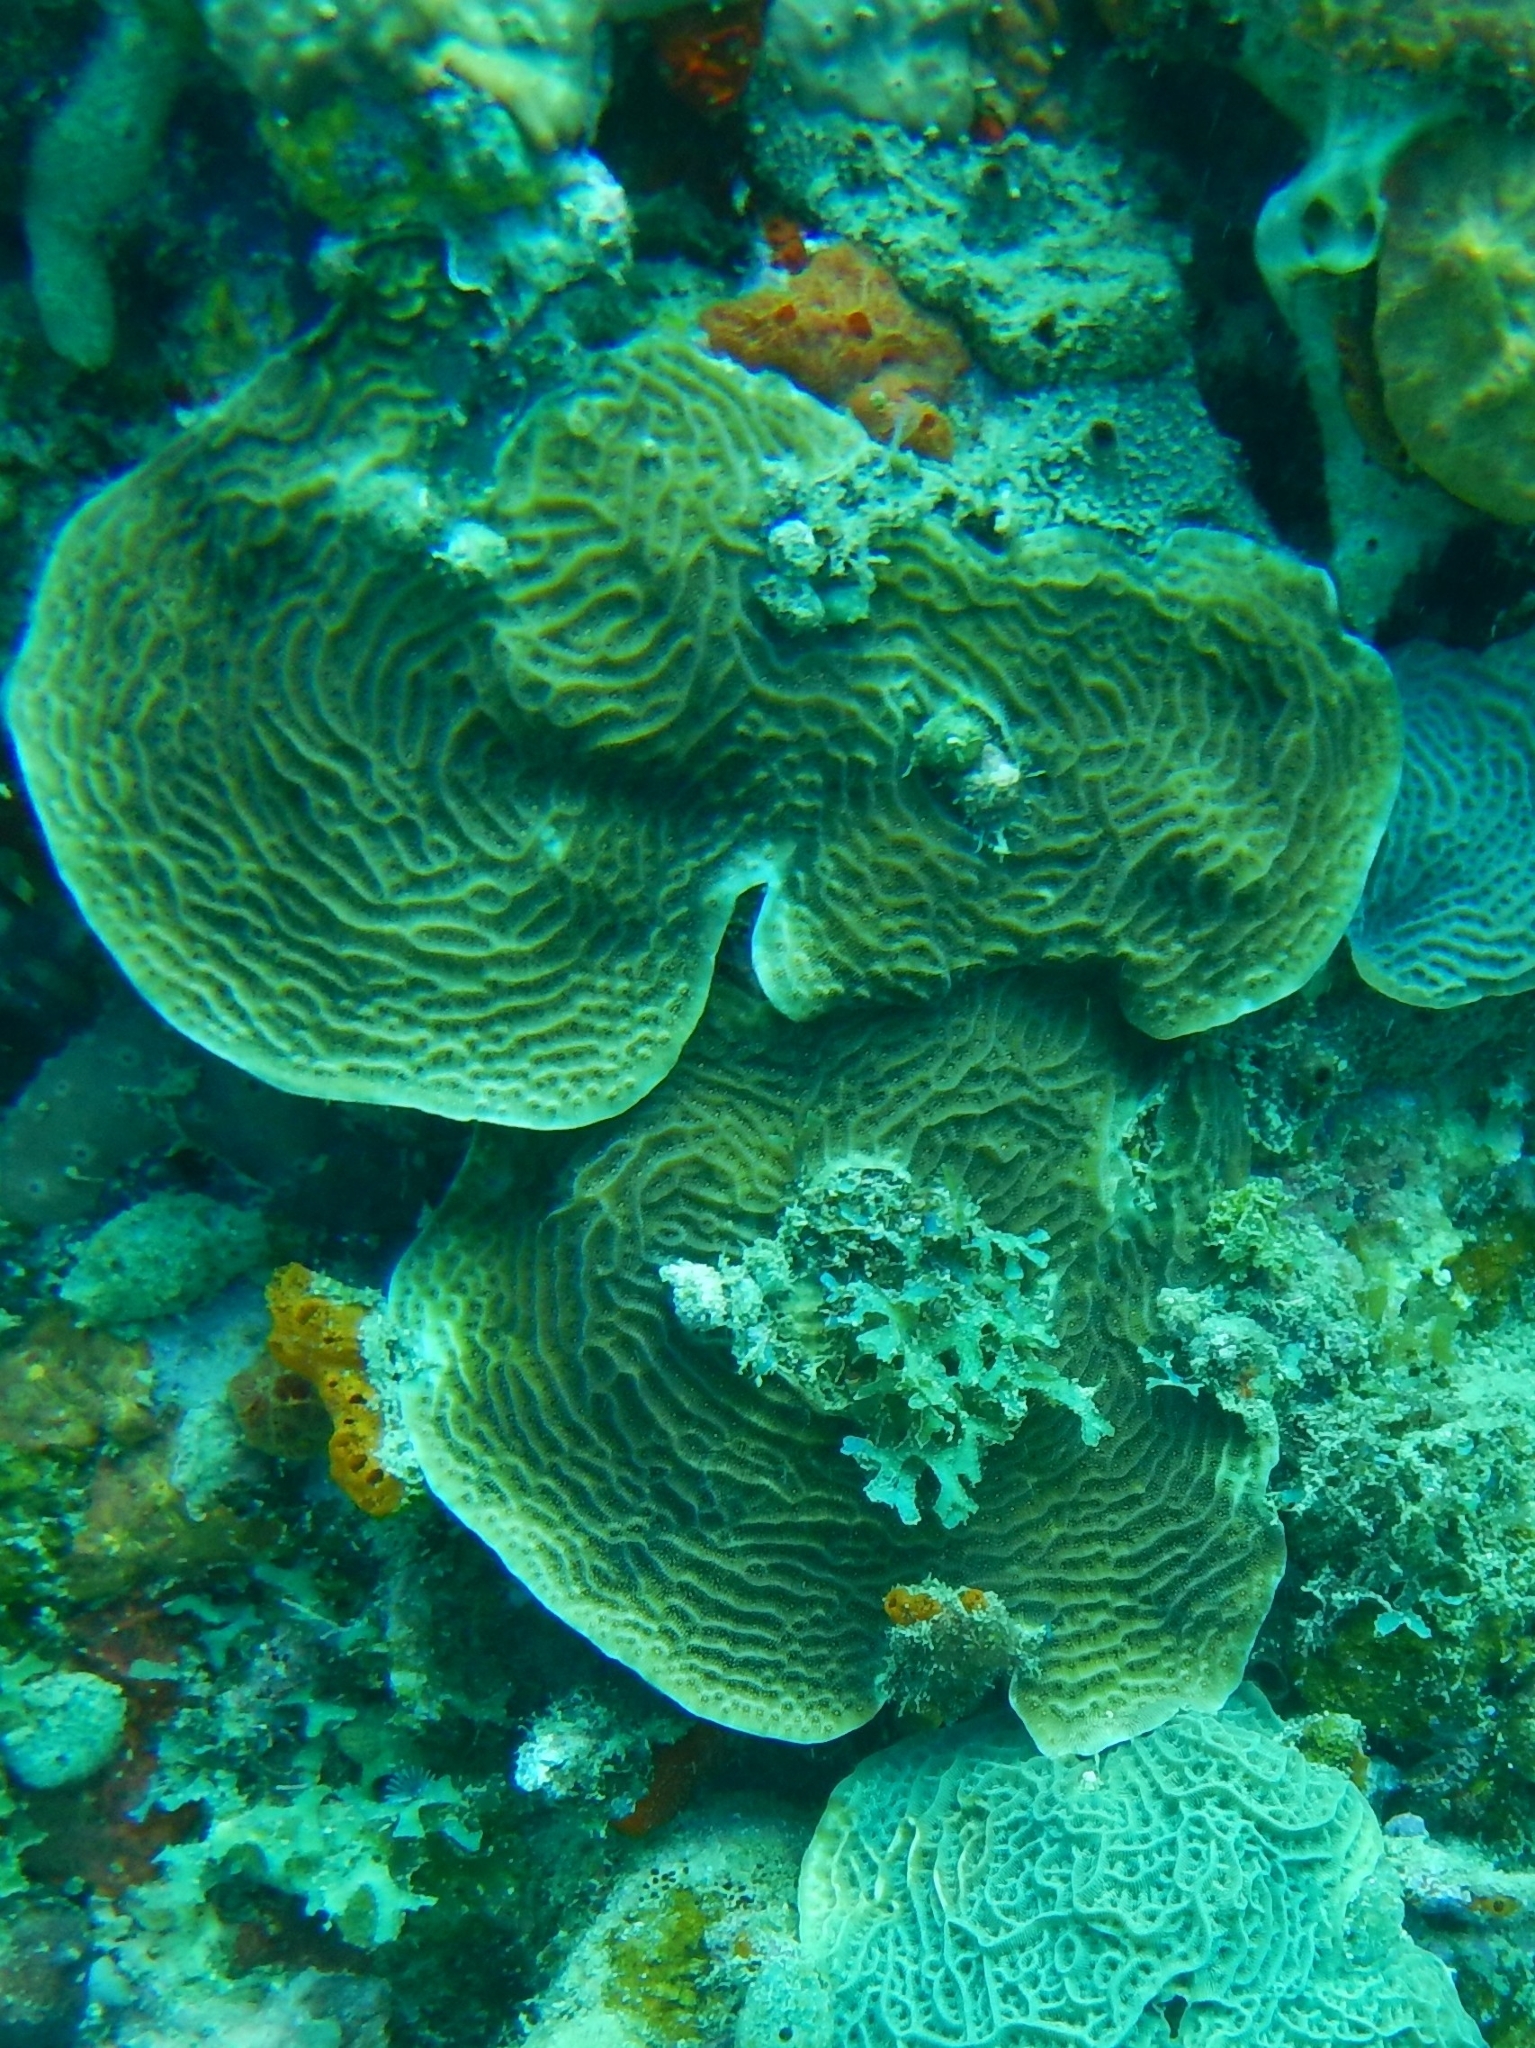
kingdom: Animalia
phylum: Cnidaria
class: Anthozoa
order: Scleractinia
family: Agariciidae
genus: Agaricia
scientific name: Agaricia agaricites
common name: Lettuce coral
